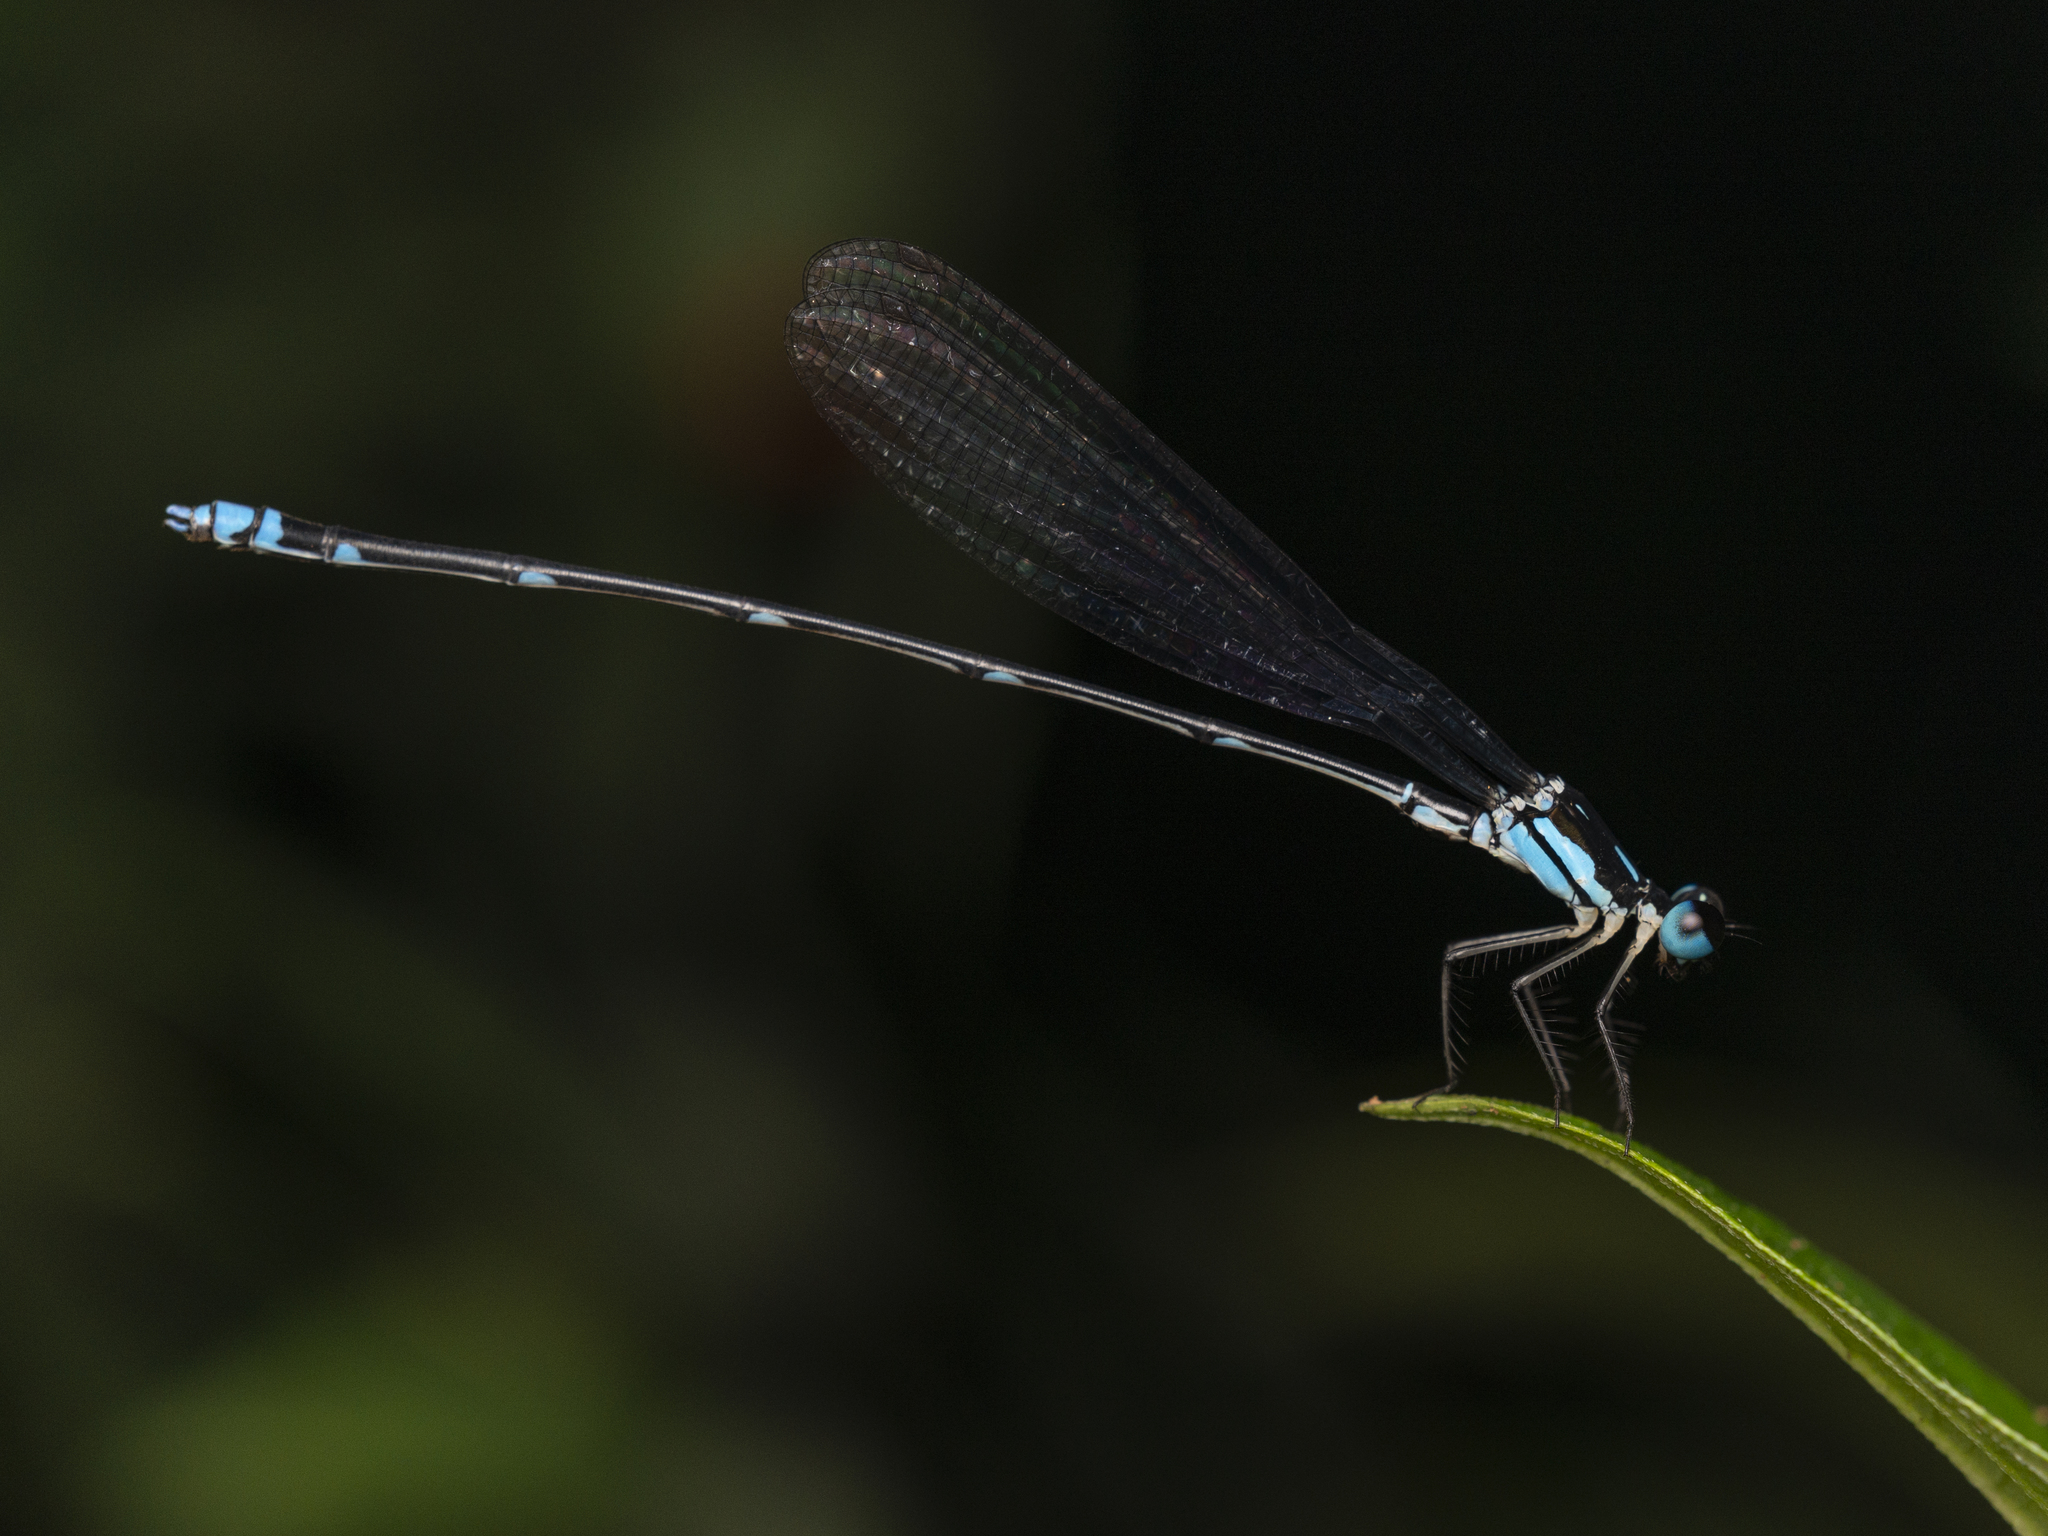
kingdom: Animalia
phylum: Arthropoda
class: Insecta
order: Odonata
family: Platycnemididae
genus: Coeliccia
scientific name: Coeliccia cyanomelas
